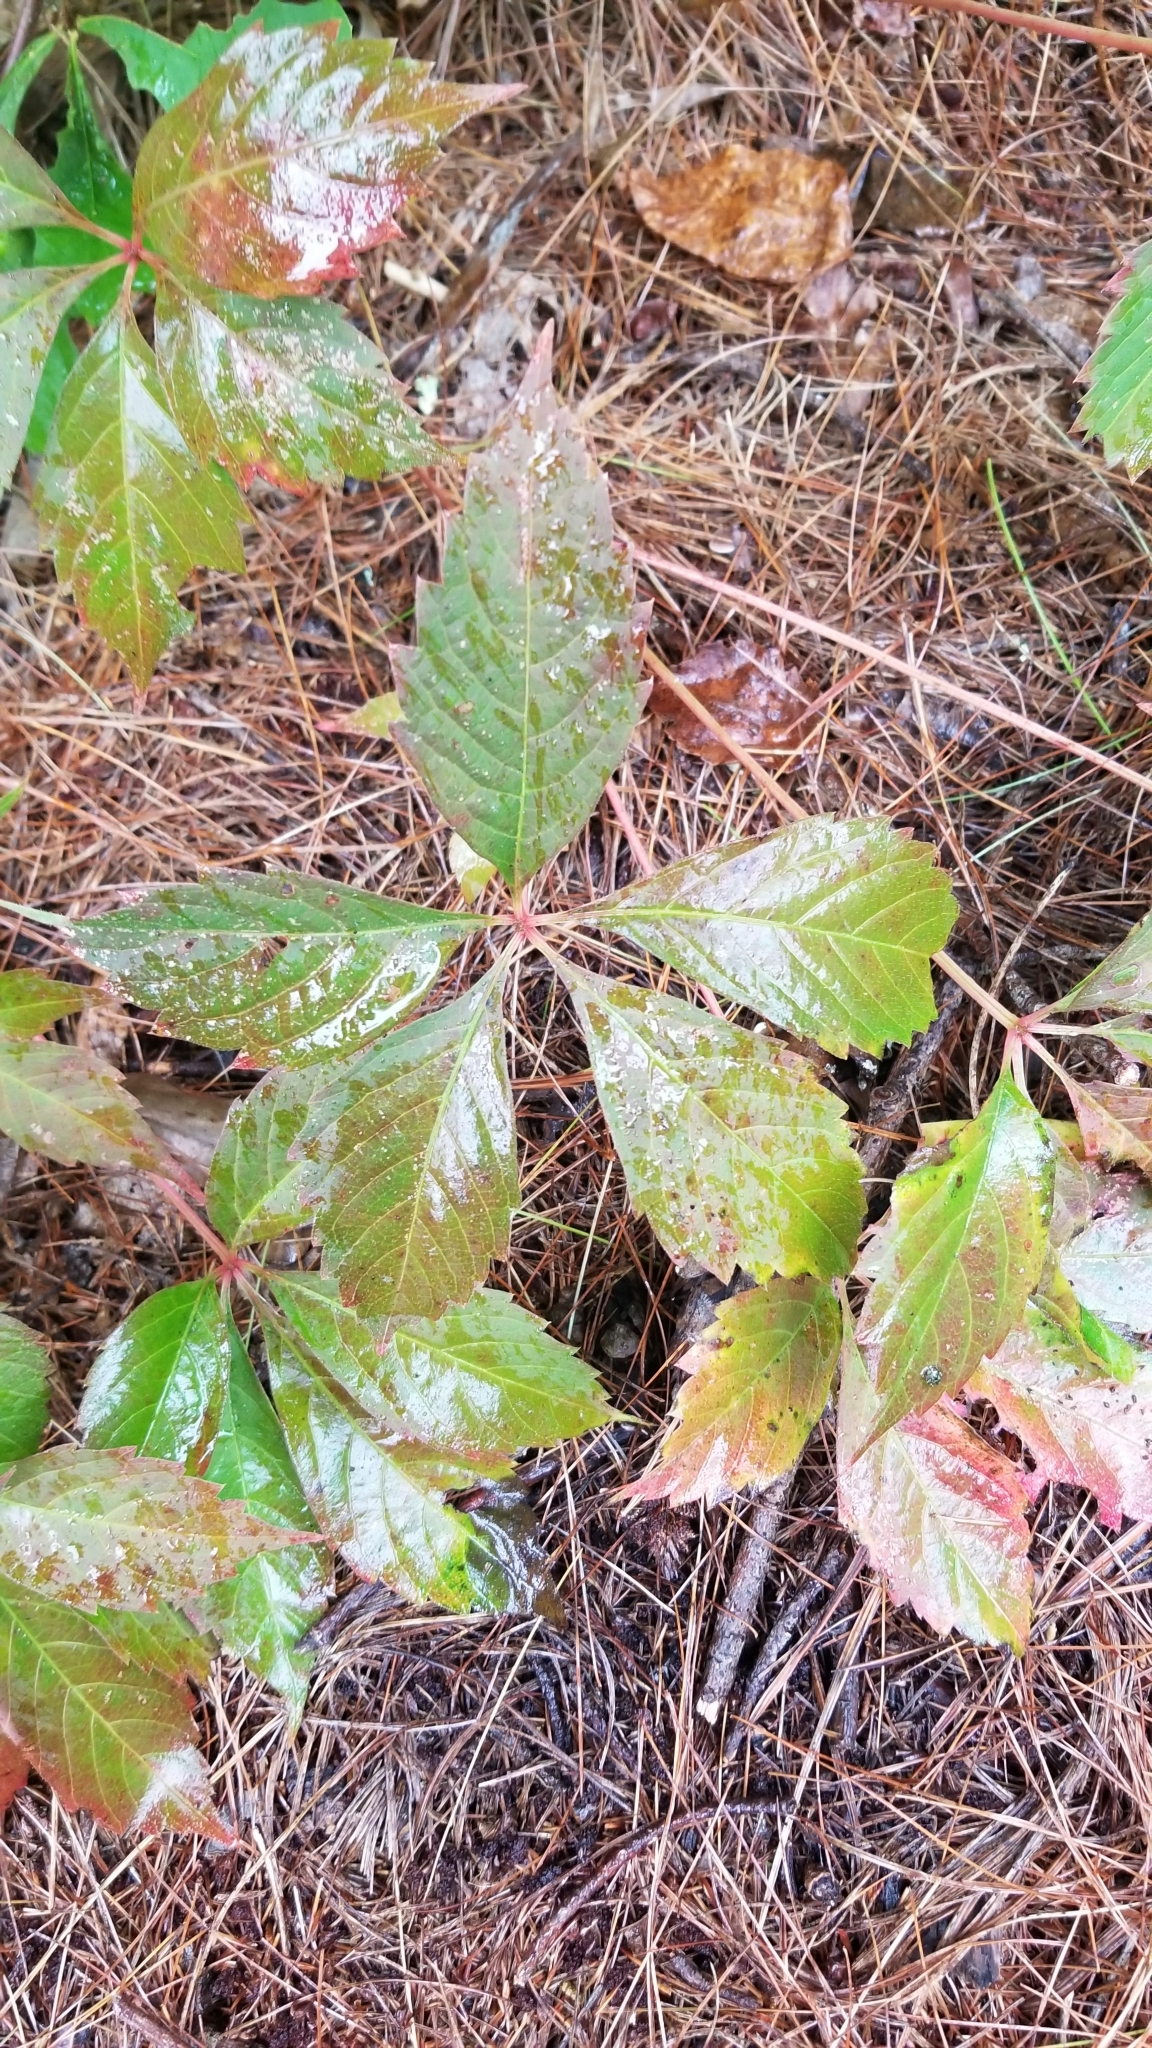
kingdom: Plantae
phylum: Tracheophyta
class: Magnoliopsida
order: Vitales
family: Vitaceae
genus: Parthenocissus
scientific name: Parthenocissus quinquefolia
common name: Virginia-creeper
